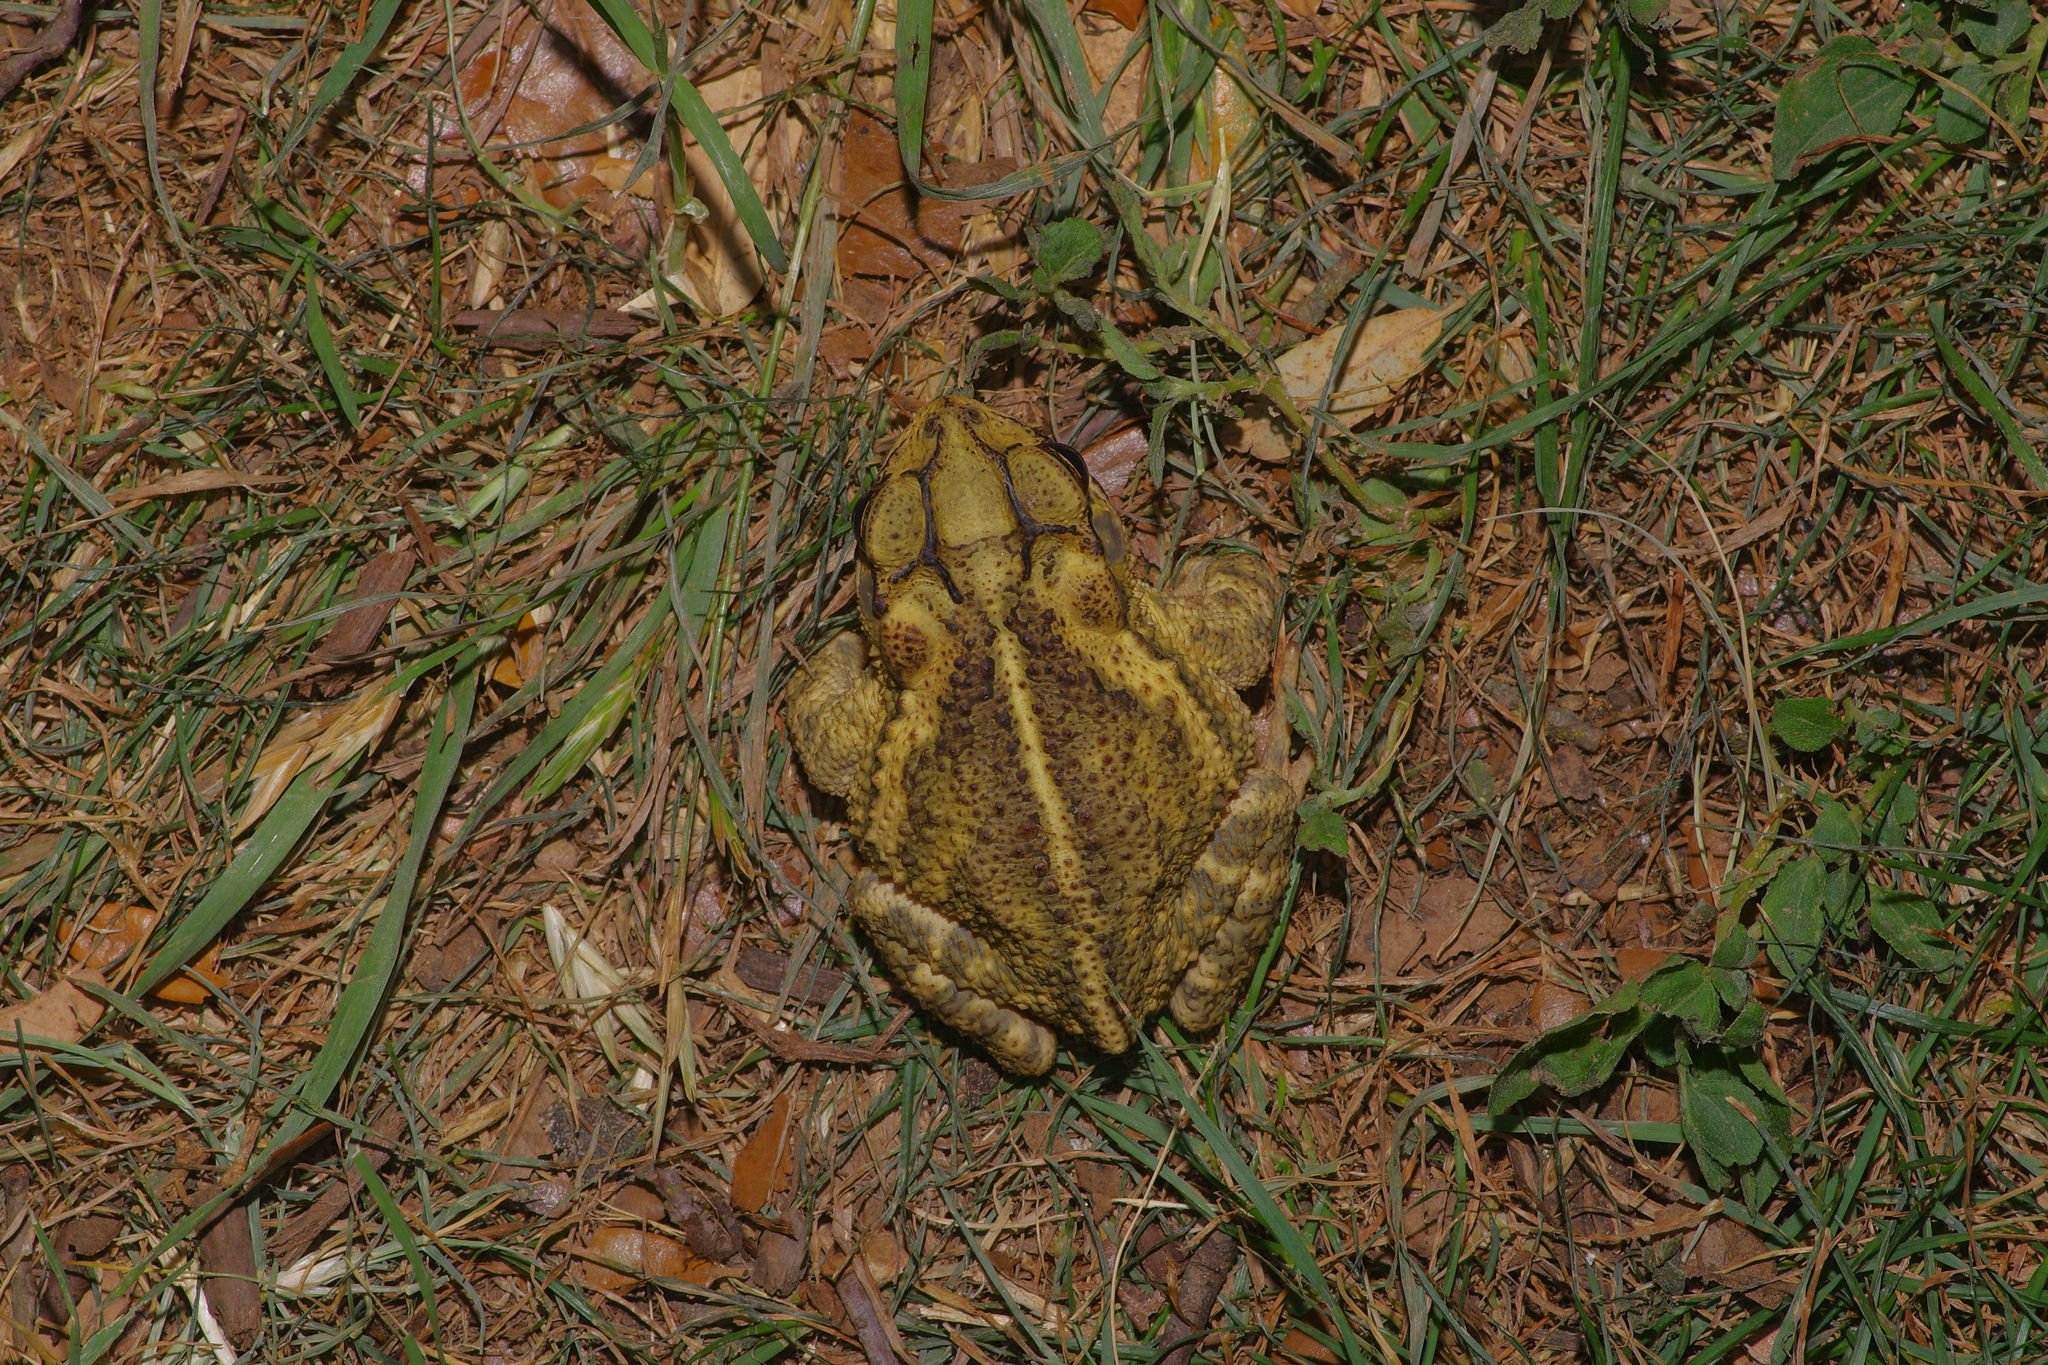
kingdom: Animalia
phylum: Chordata
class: Amphibia
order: Anura
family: Bufonidae
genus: Incilius
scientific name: Incilius nebulifer
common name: Gulf coast toad
